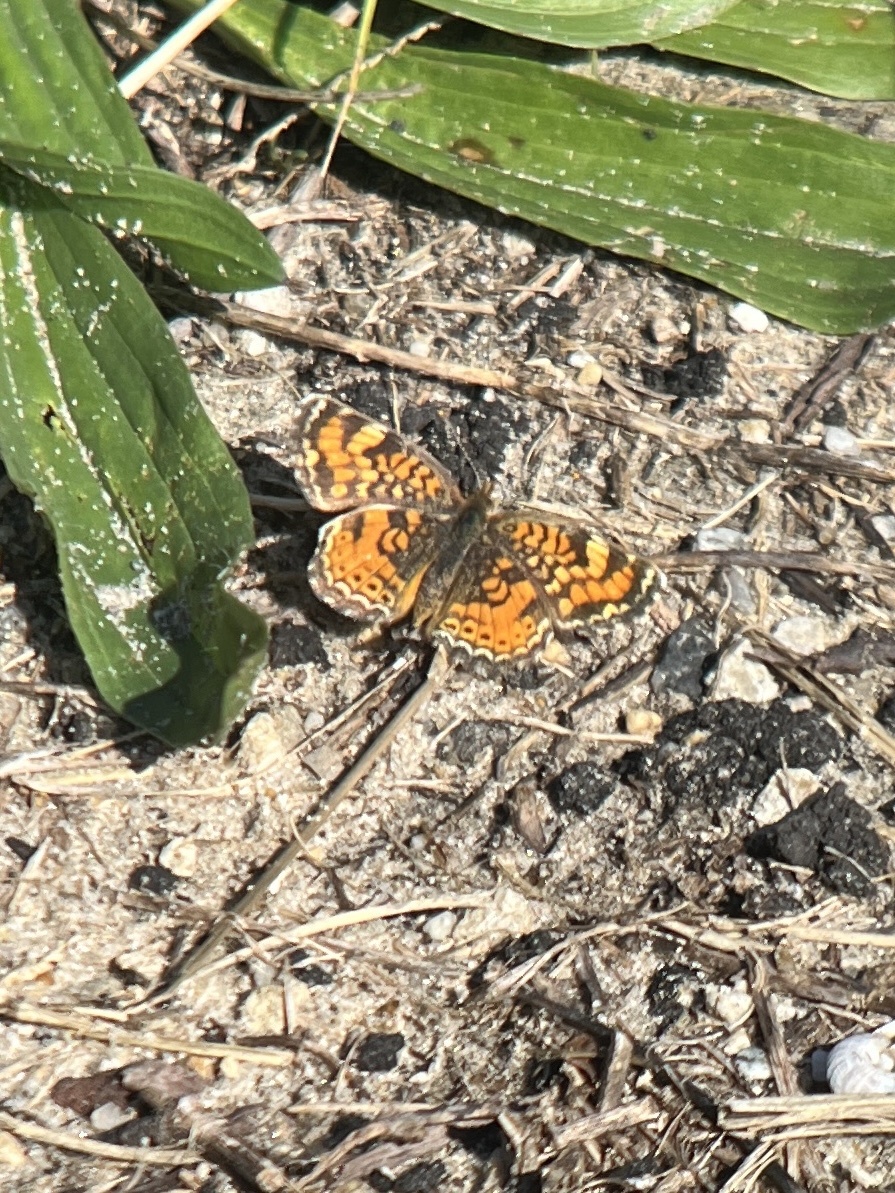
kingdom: Animalia
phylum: Arthropoda
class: Insecta
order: Lepidoptera
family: Nymphalidae
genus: Phyciodes
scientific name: Phyciodes phaon
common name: Phaon crescent
